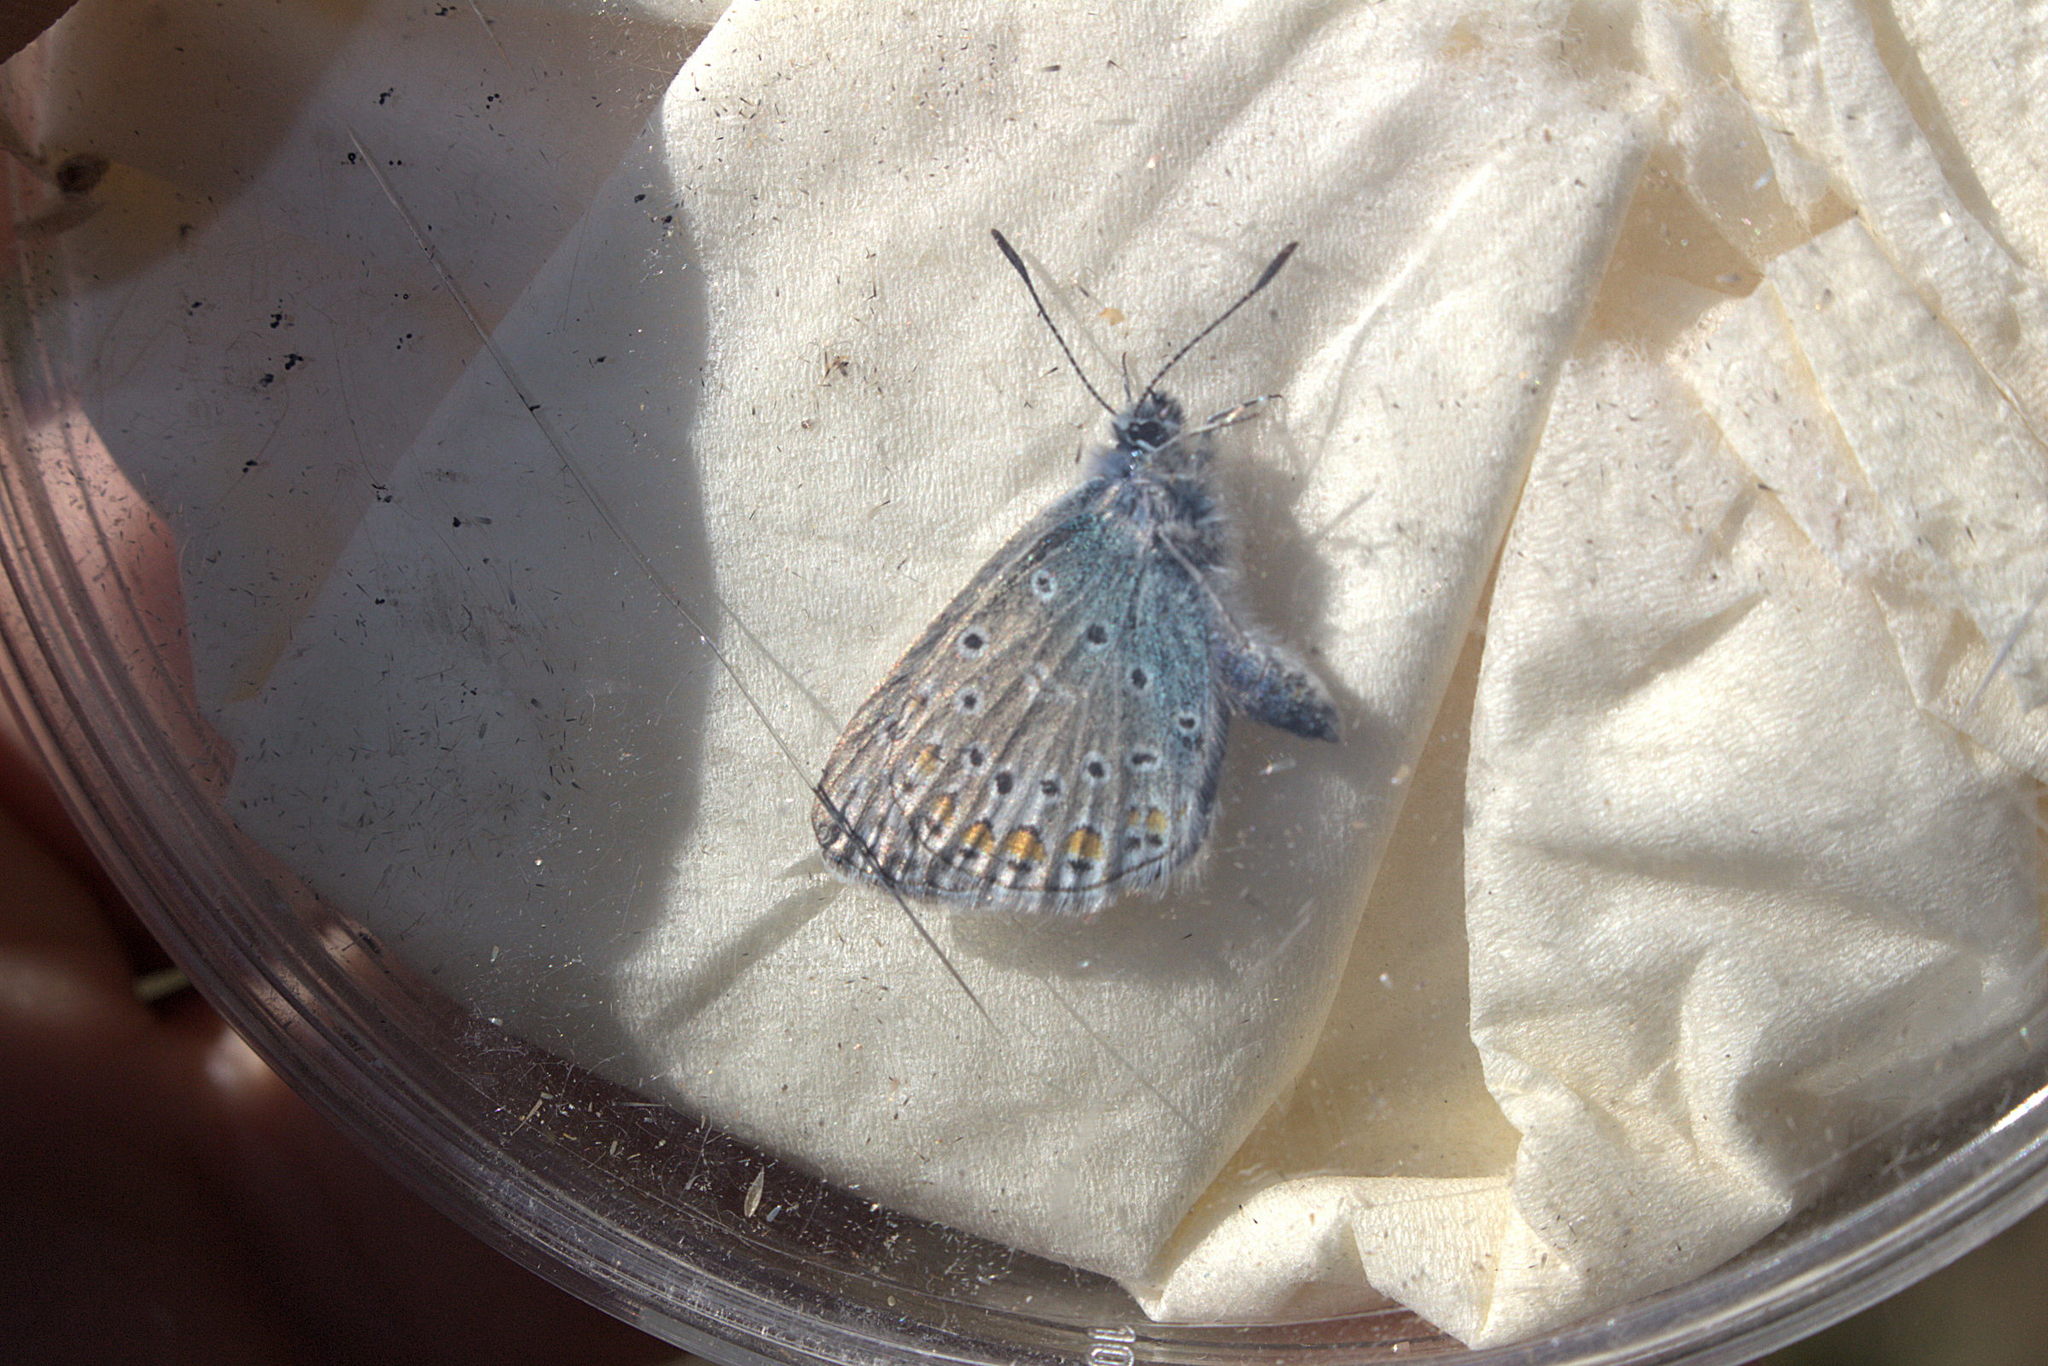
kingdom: Animalia
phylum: Arthropoda
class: Insecta
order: Lepidoptera
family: Lycaenidae
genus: Polyommatus
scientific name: Polyommatus icarus
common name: Common blue
